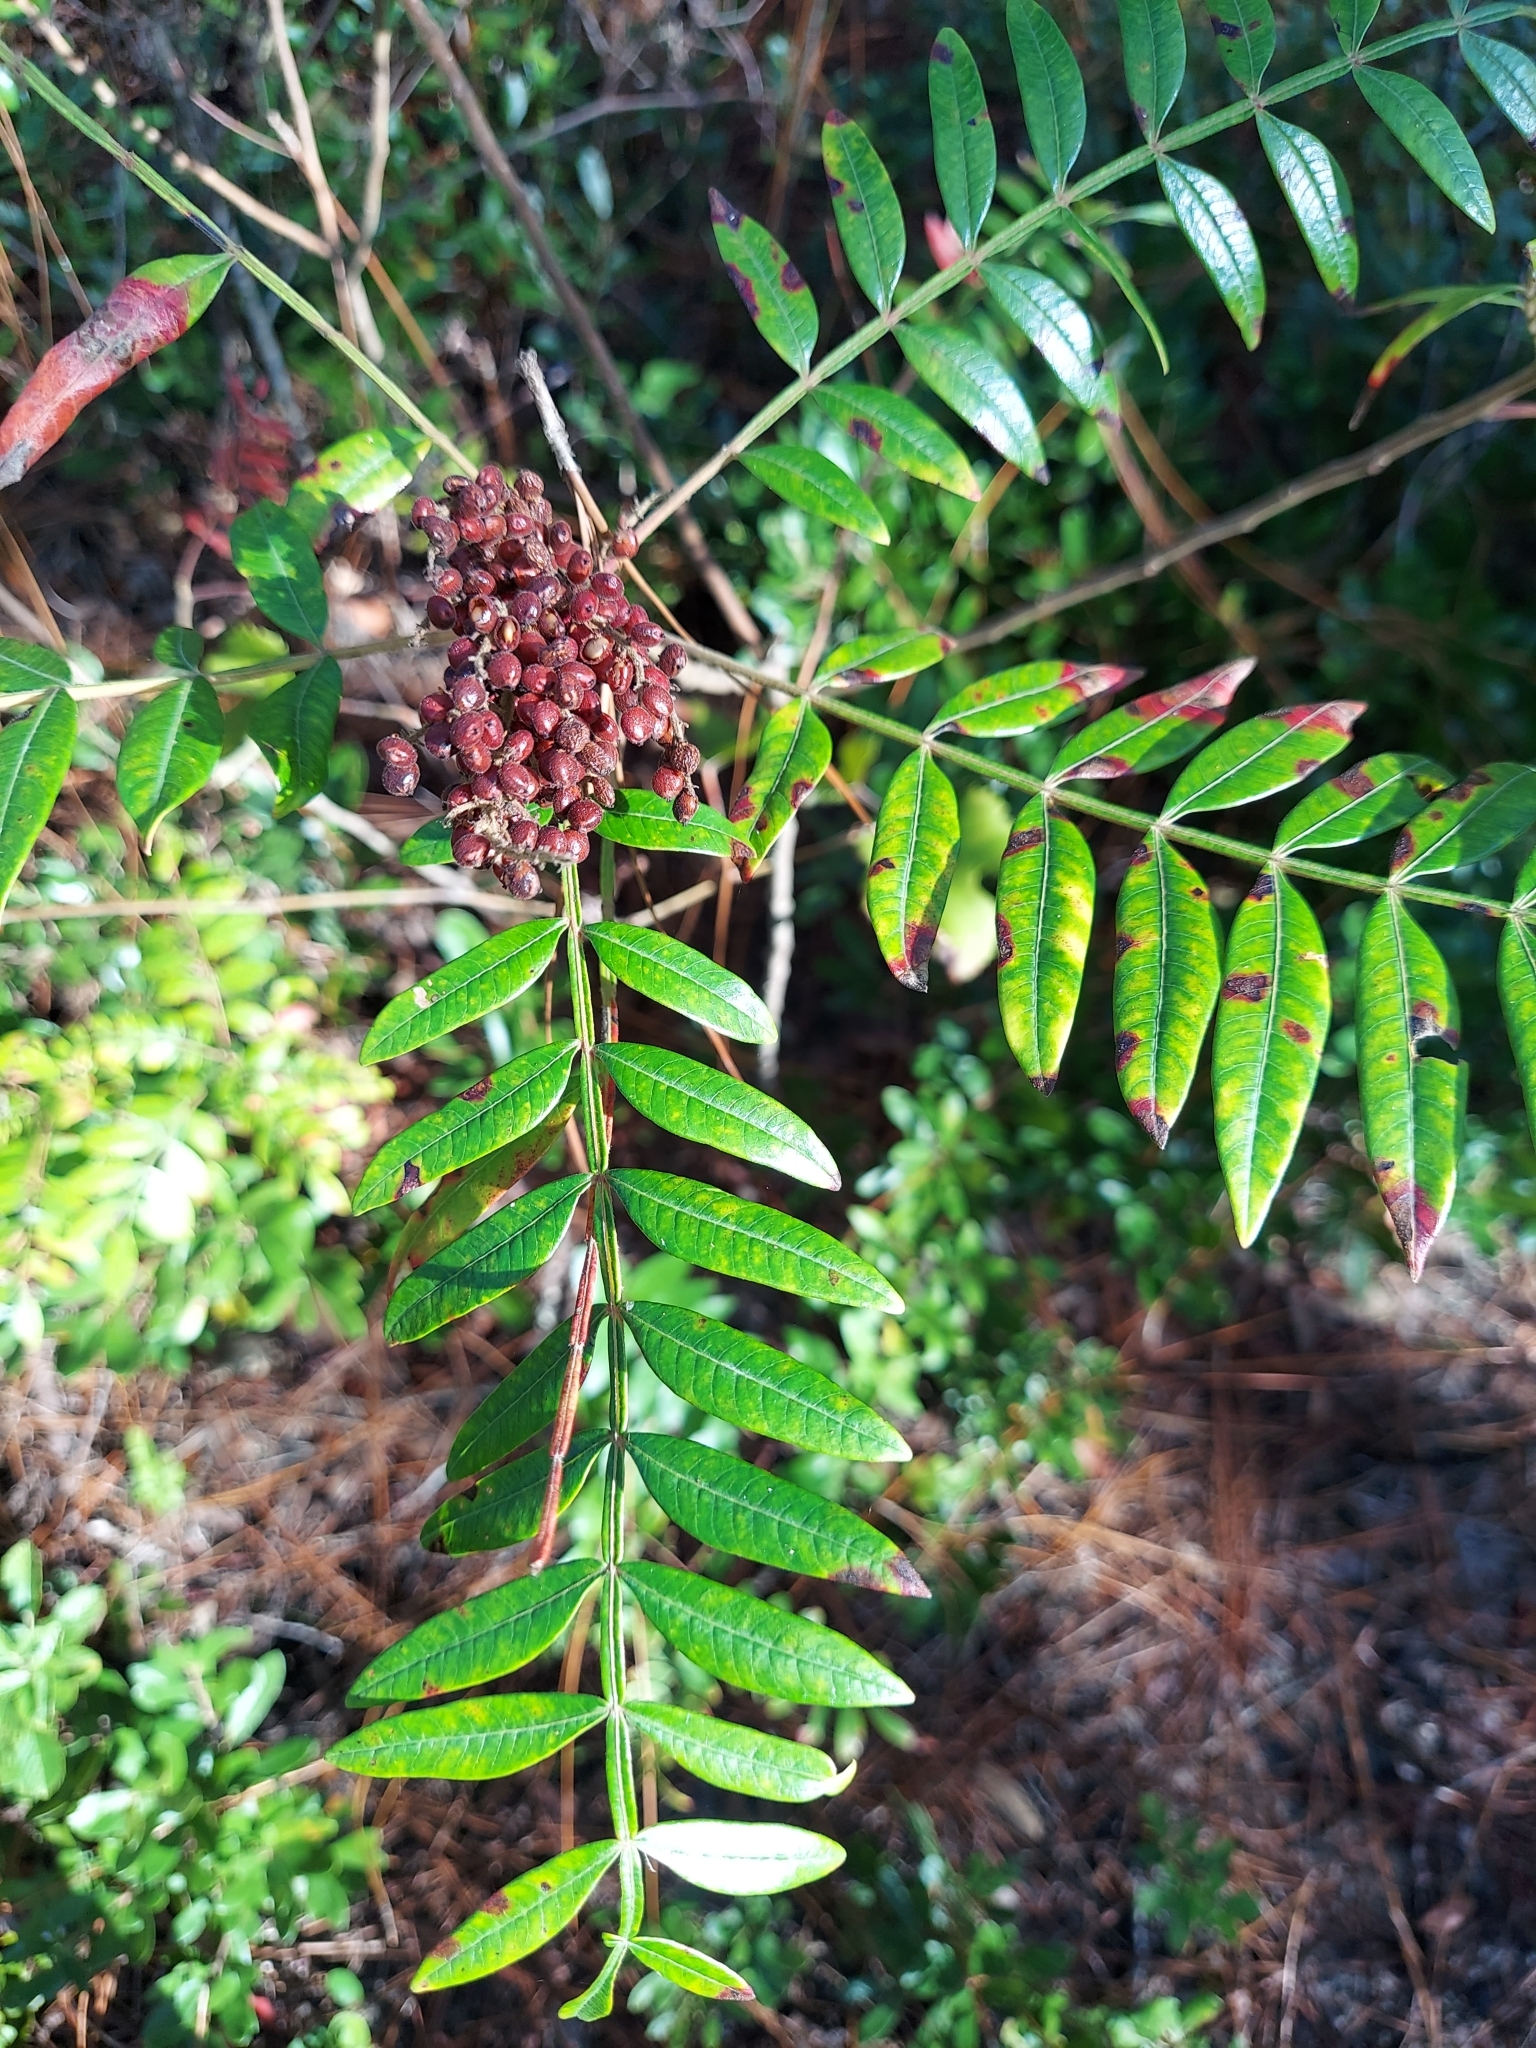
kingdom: Plantae
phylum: Tracheophyta
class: Magnoliopsida
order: Sapindales
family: Anacardiaceae
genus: Rhus
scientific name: Rhus copallina
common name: Shining sumac
